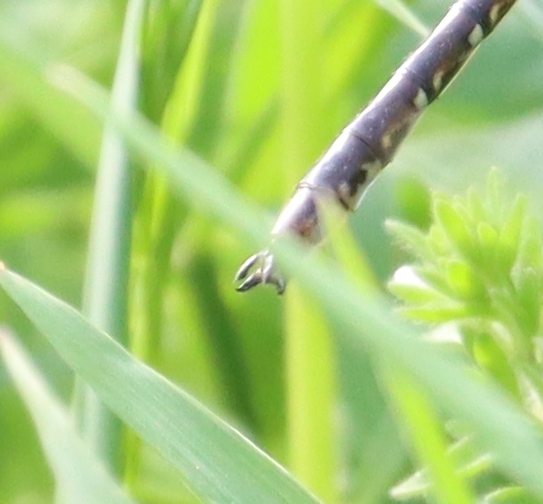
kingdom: Animalia
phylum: Arthropoda
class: Insecta
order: Odonata
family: Gomphidae
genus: Phanogomphus
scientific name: Phanogomphus lividus
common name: Ashy clubtail
